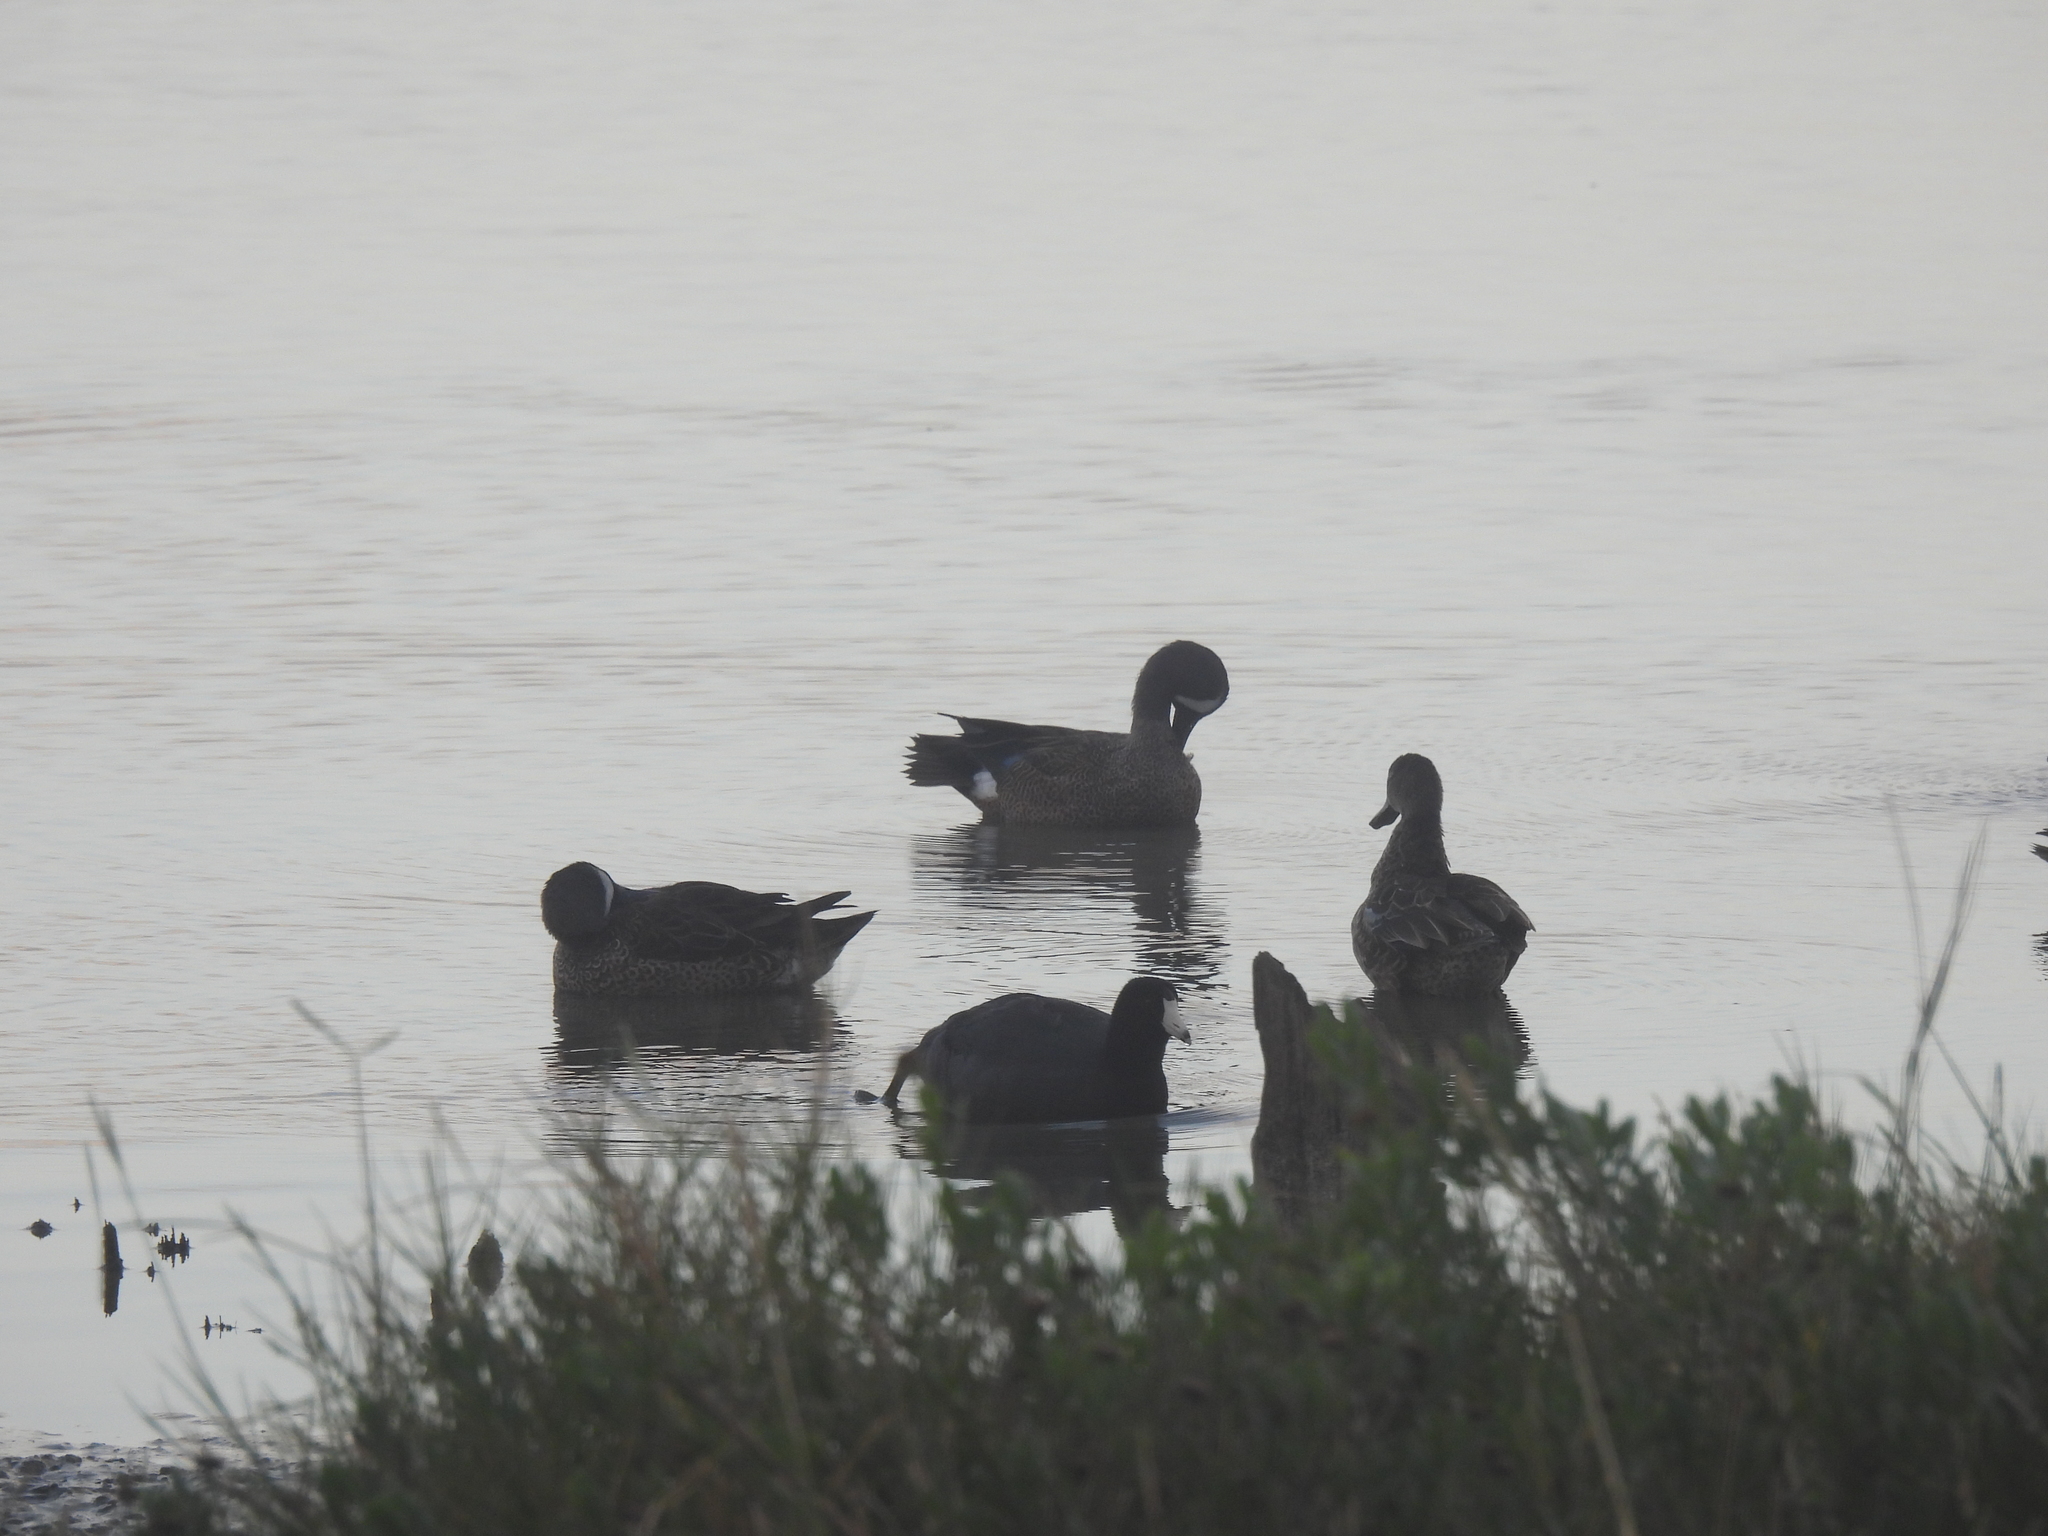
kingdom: Animalia
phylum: Chordata
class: Aves
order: Anseriformes
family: Anatidae
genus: Spatula
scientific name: Spatula discors
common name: Blue-winged teal
